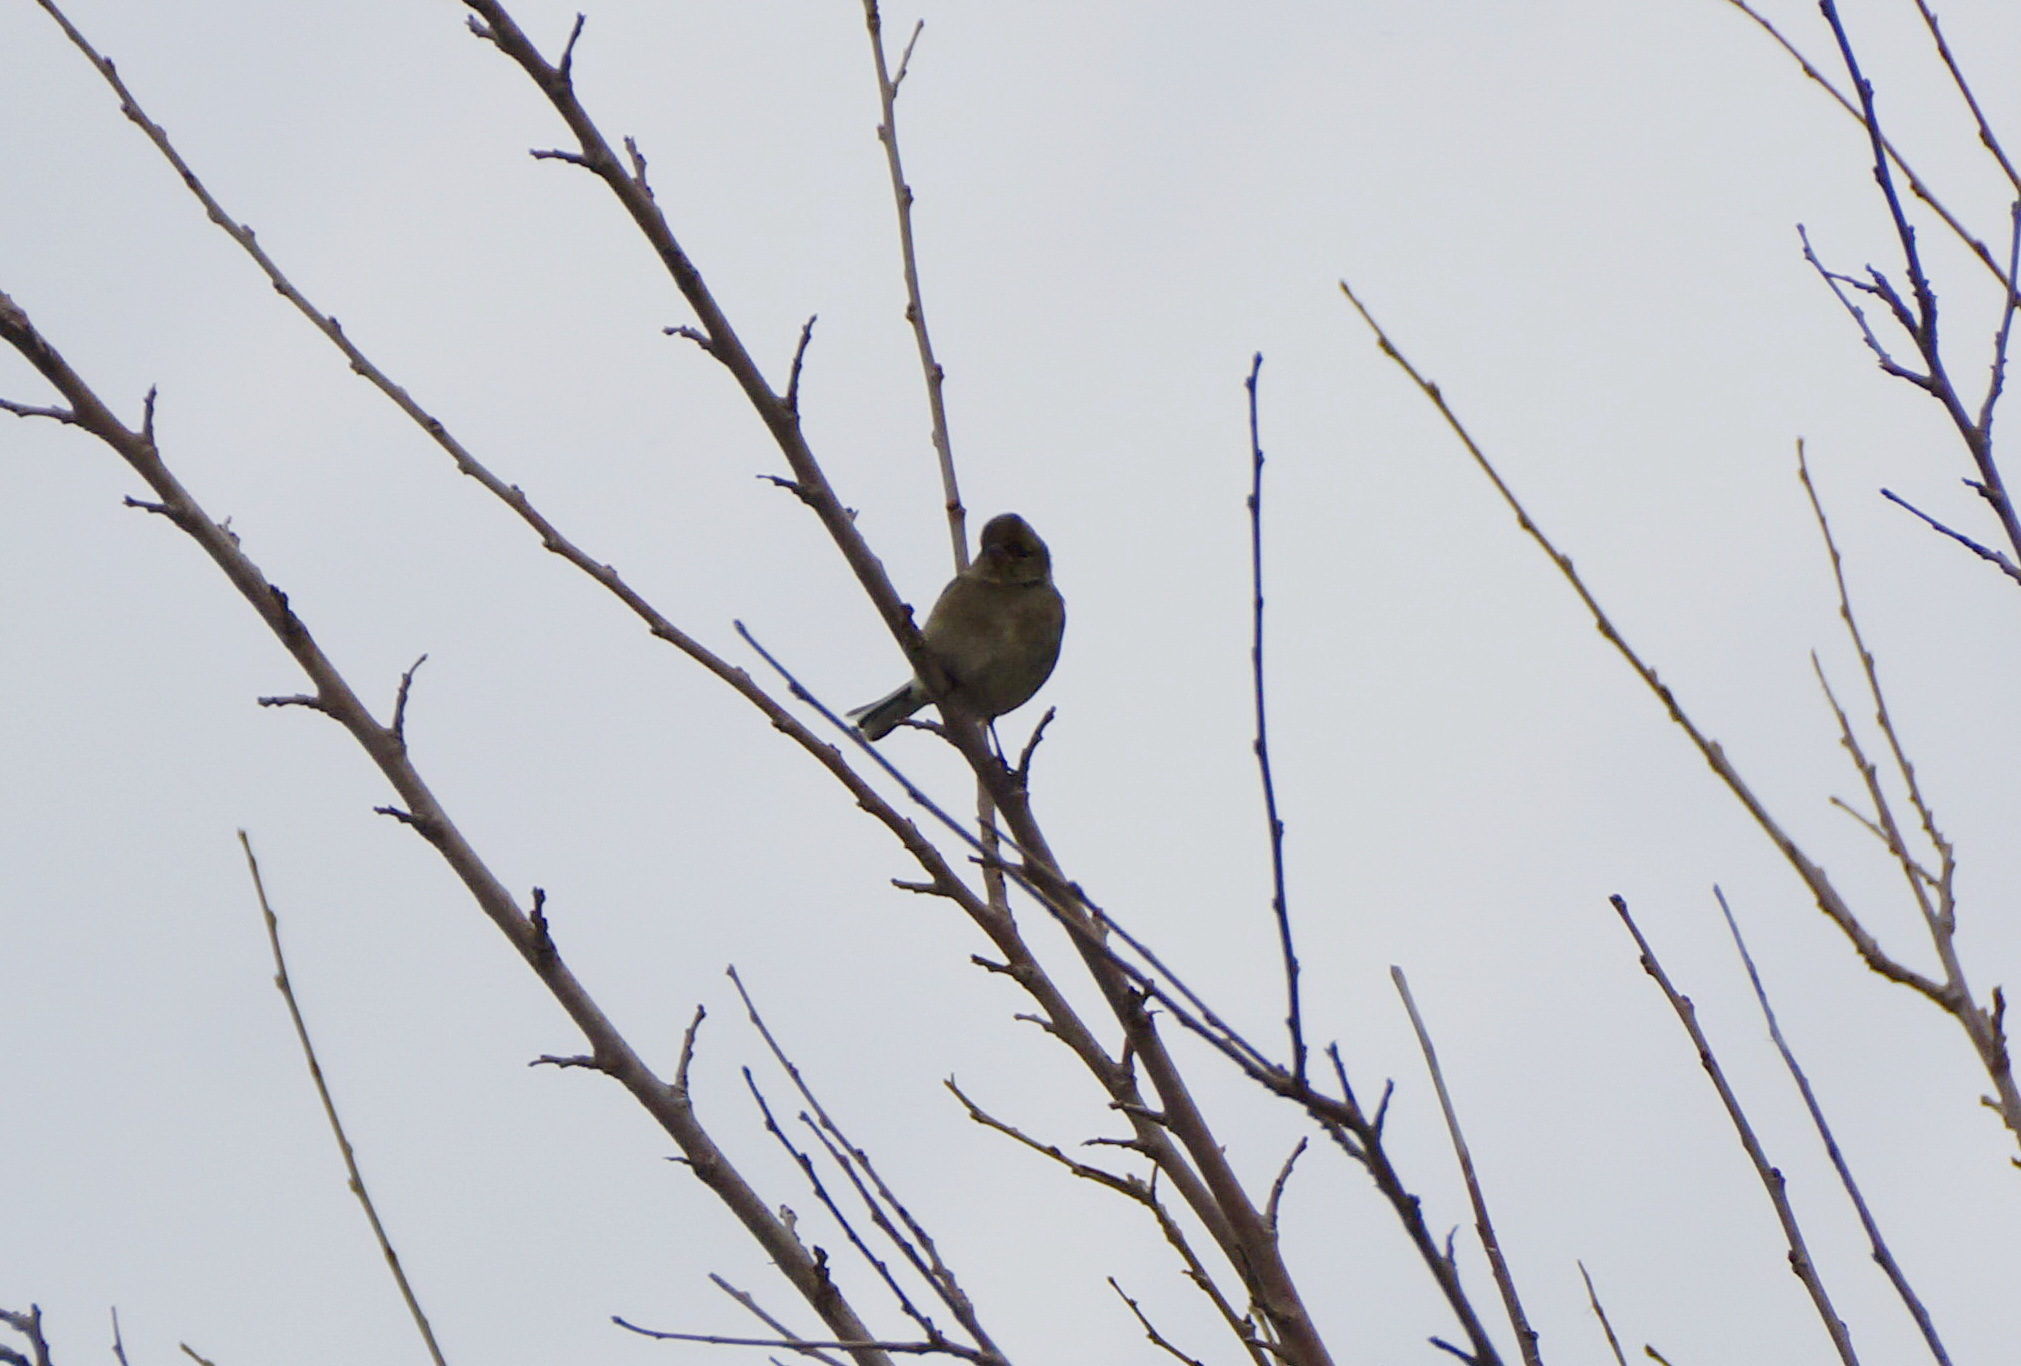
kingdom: Animalia
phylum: Chordata
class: Aves
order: Passeriformes
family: Fringillidae
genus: Fringilla
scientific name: Fringilla coelebs
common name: Common chaffinch
